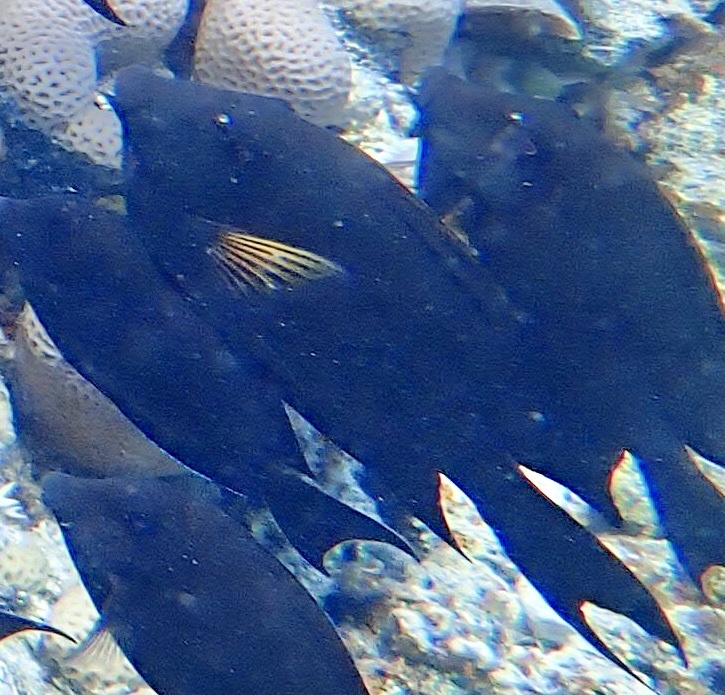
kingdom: Animalia
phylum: Chordata
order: Perciformes
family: Acanthuridae
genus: Ctenochaetus
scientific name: Ctenochaetus striatus
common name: Bristle-toothed surgeonfish
